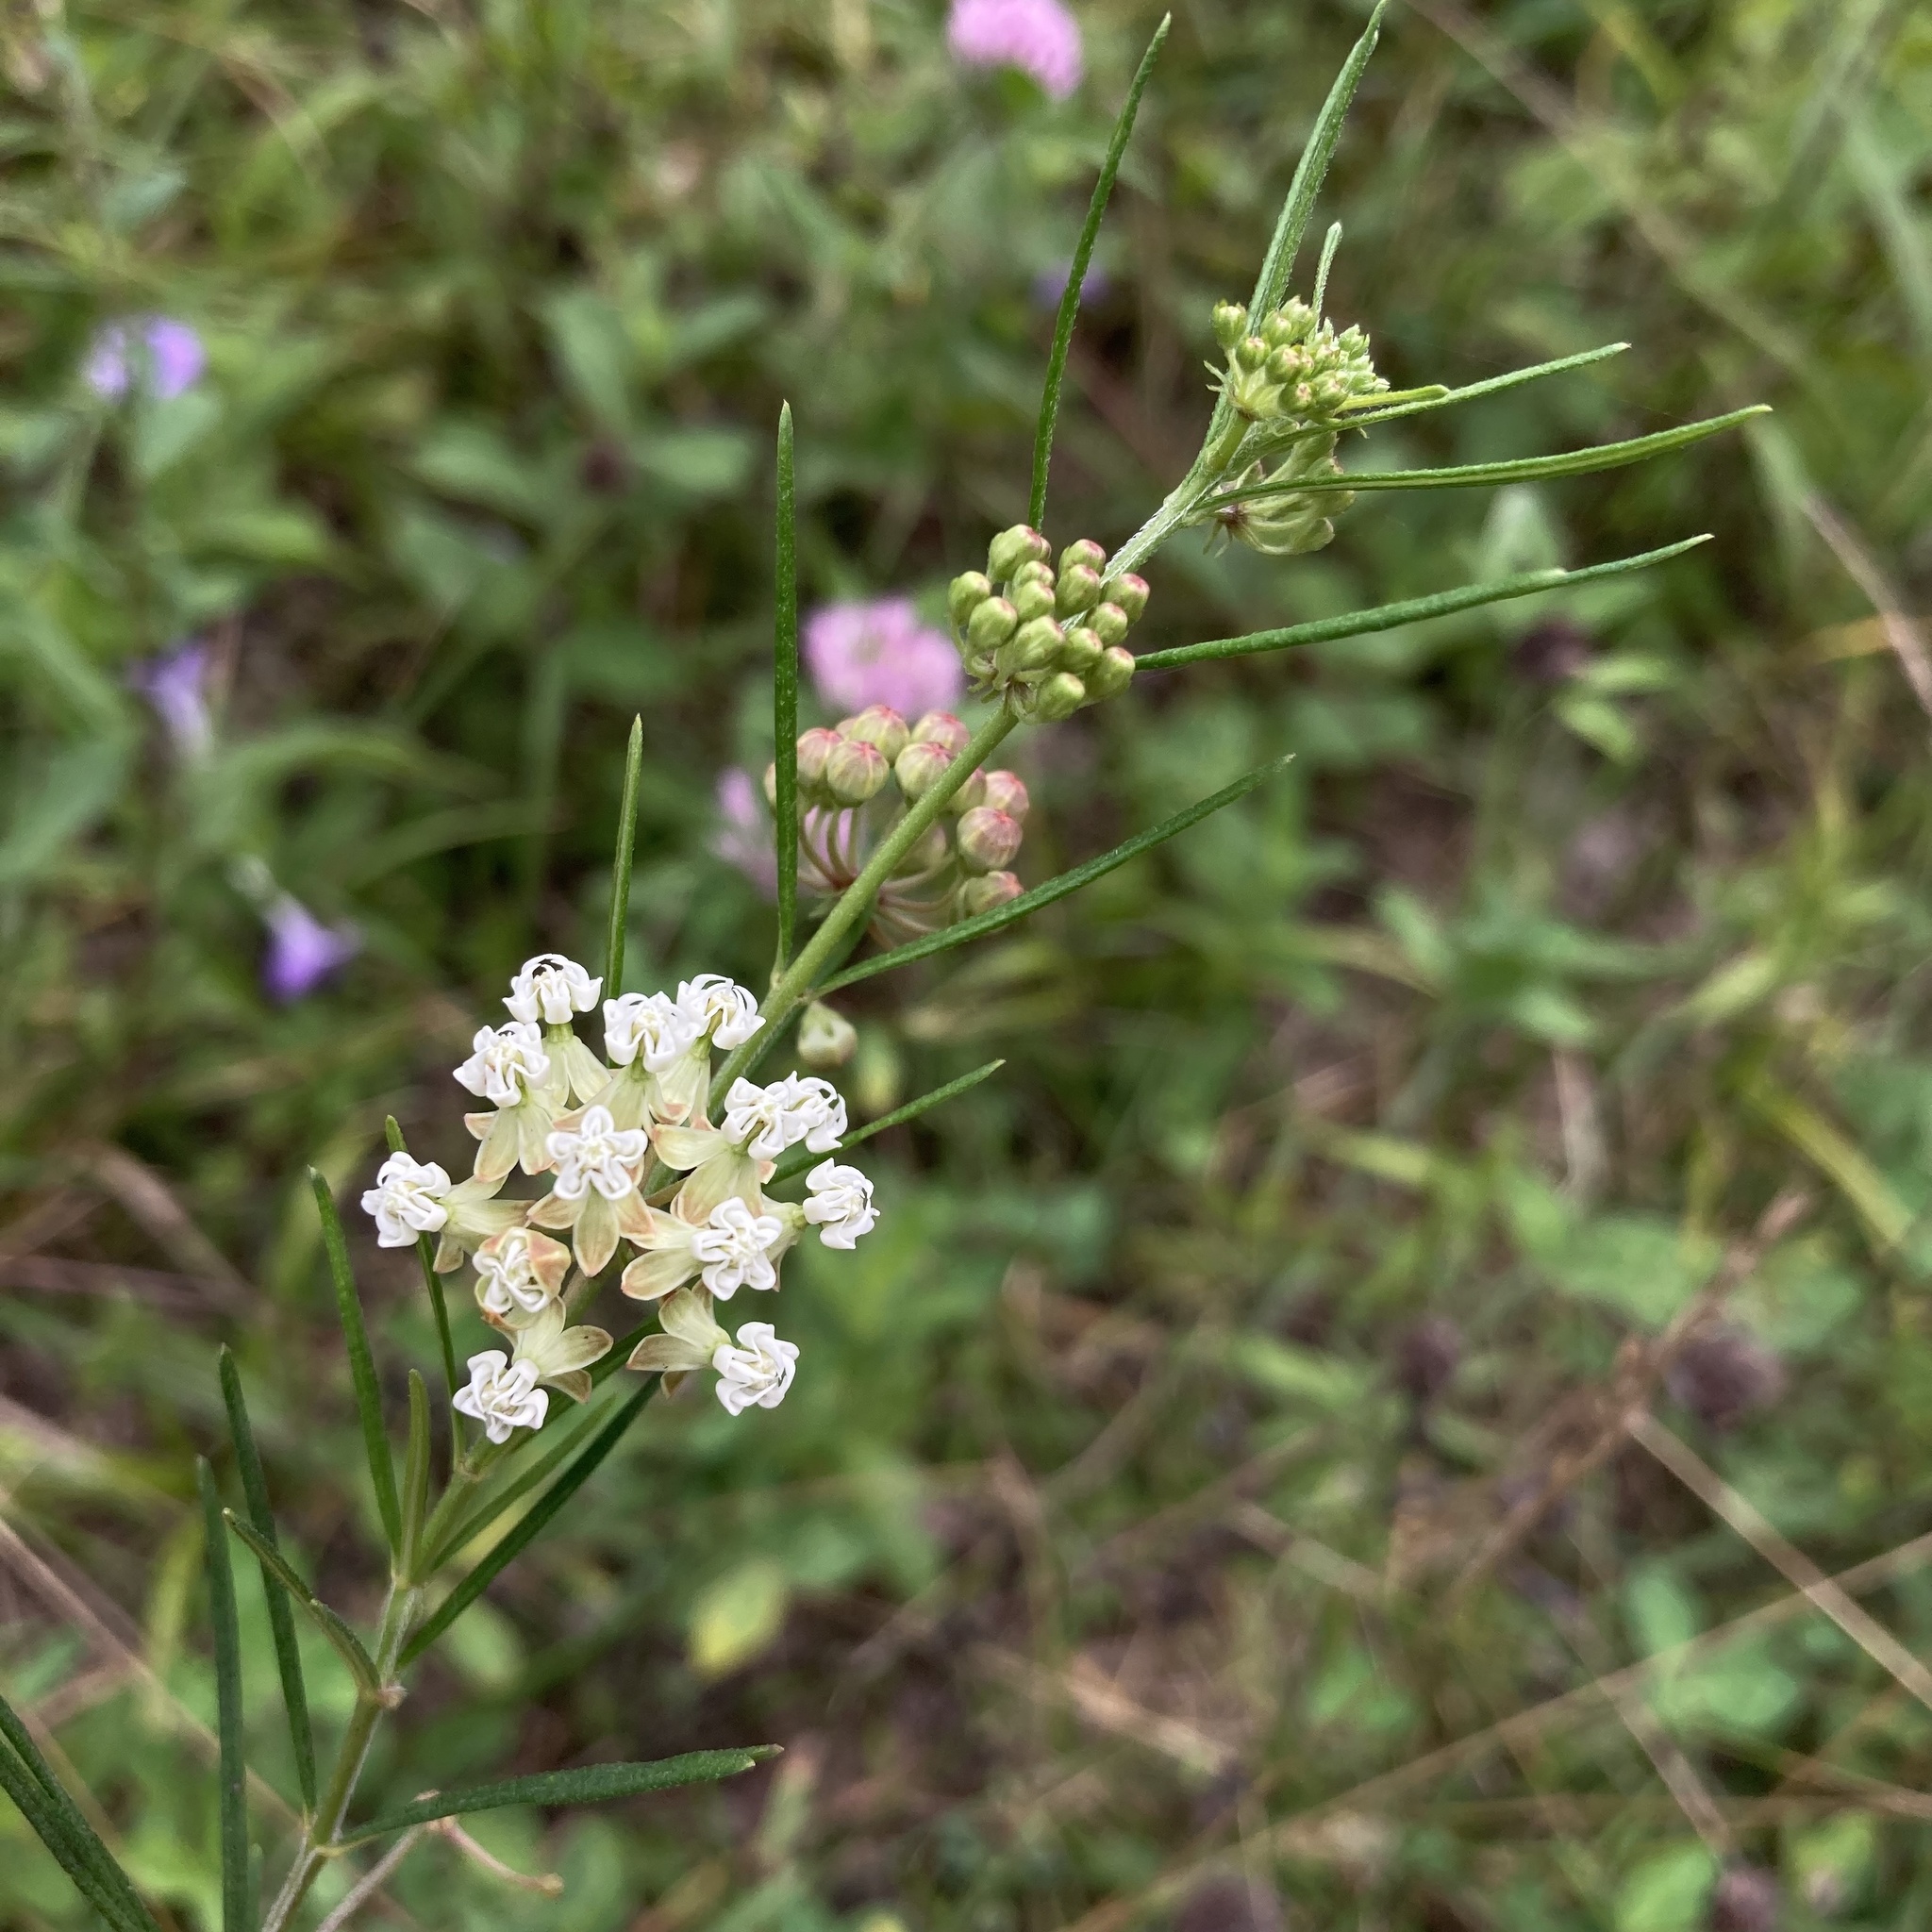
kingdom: Plantae
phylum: Tracheophyta
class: Magnoliopsida
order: Gentianales
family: Apocynaceae
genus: Asclepias
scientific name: Asclepias verticillata
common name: Eastern whorled milkweed
